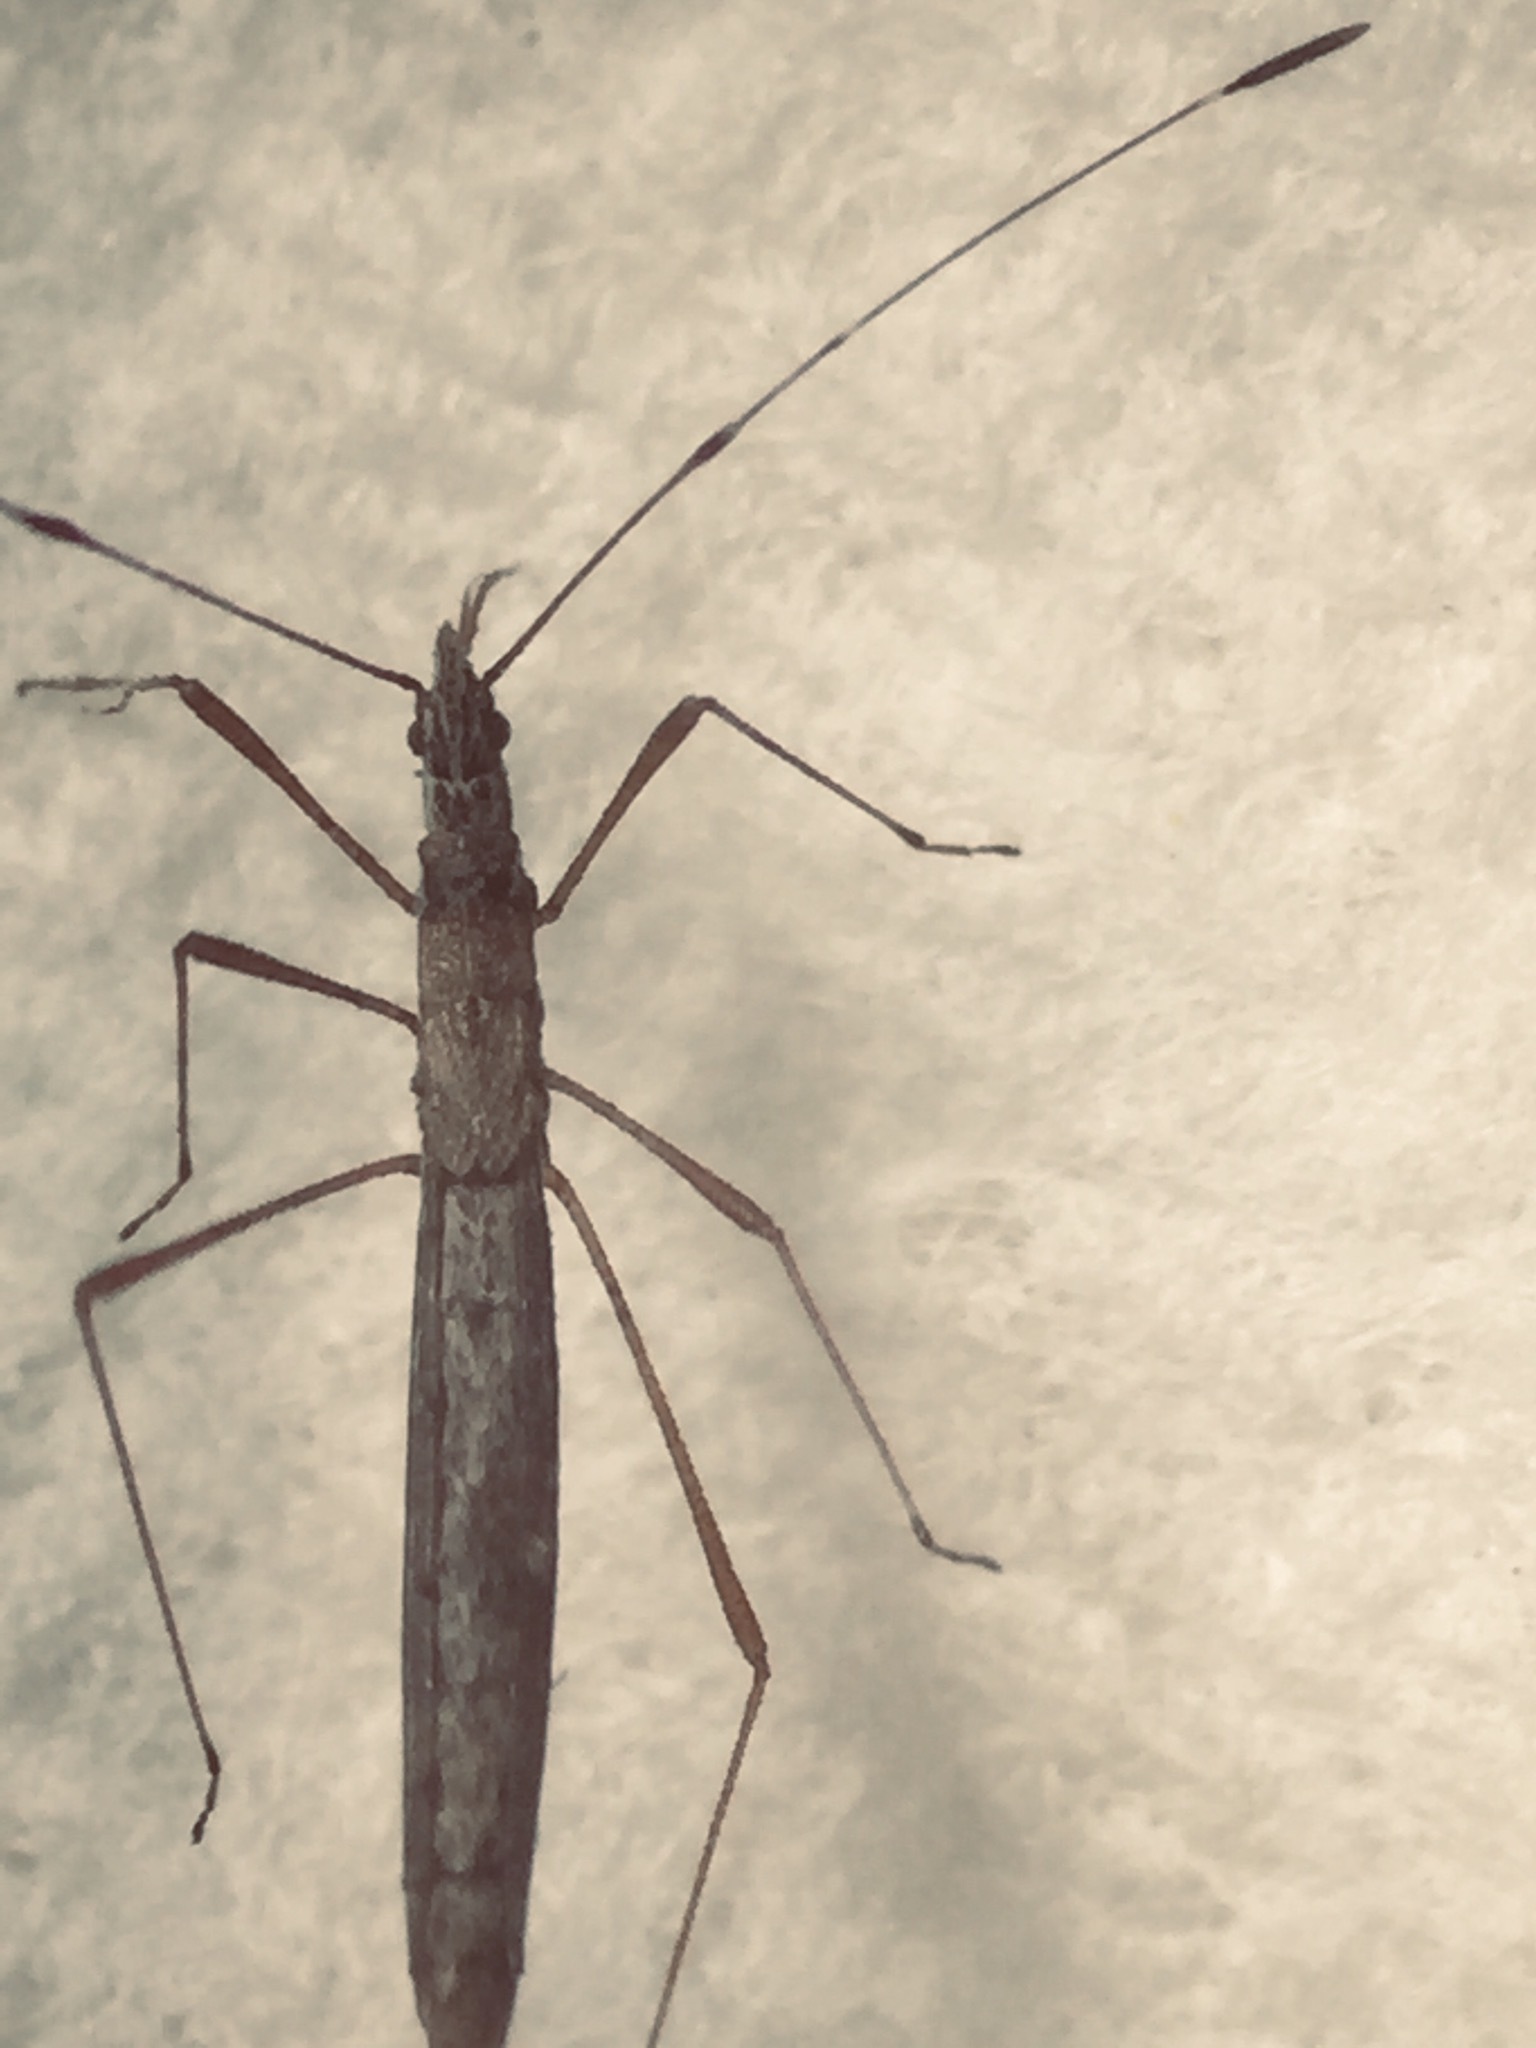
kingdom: Animalia
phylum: Arthropoda
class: Insecta
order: Hemiptera
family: Berytidae
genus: Bezu
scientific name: Bezu wakefieldi
